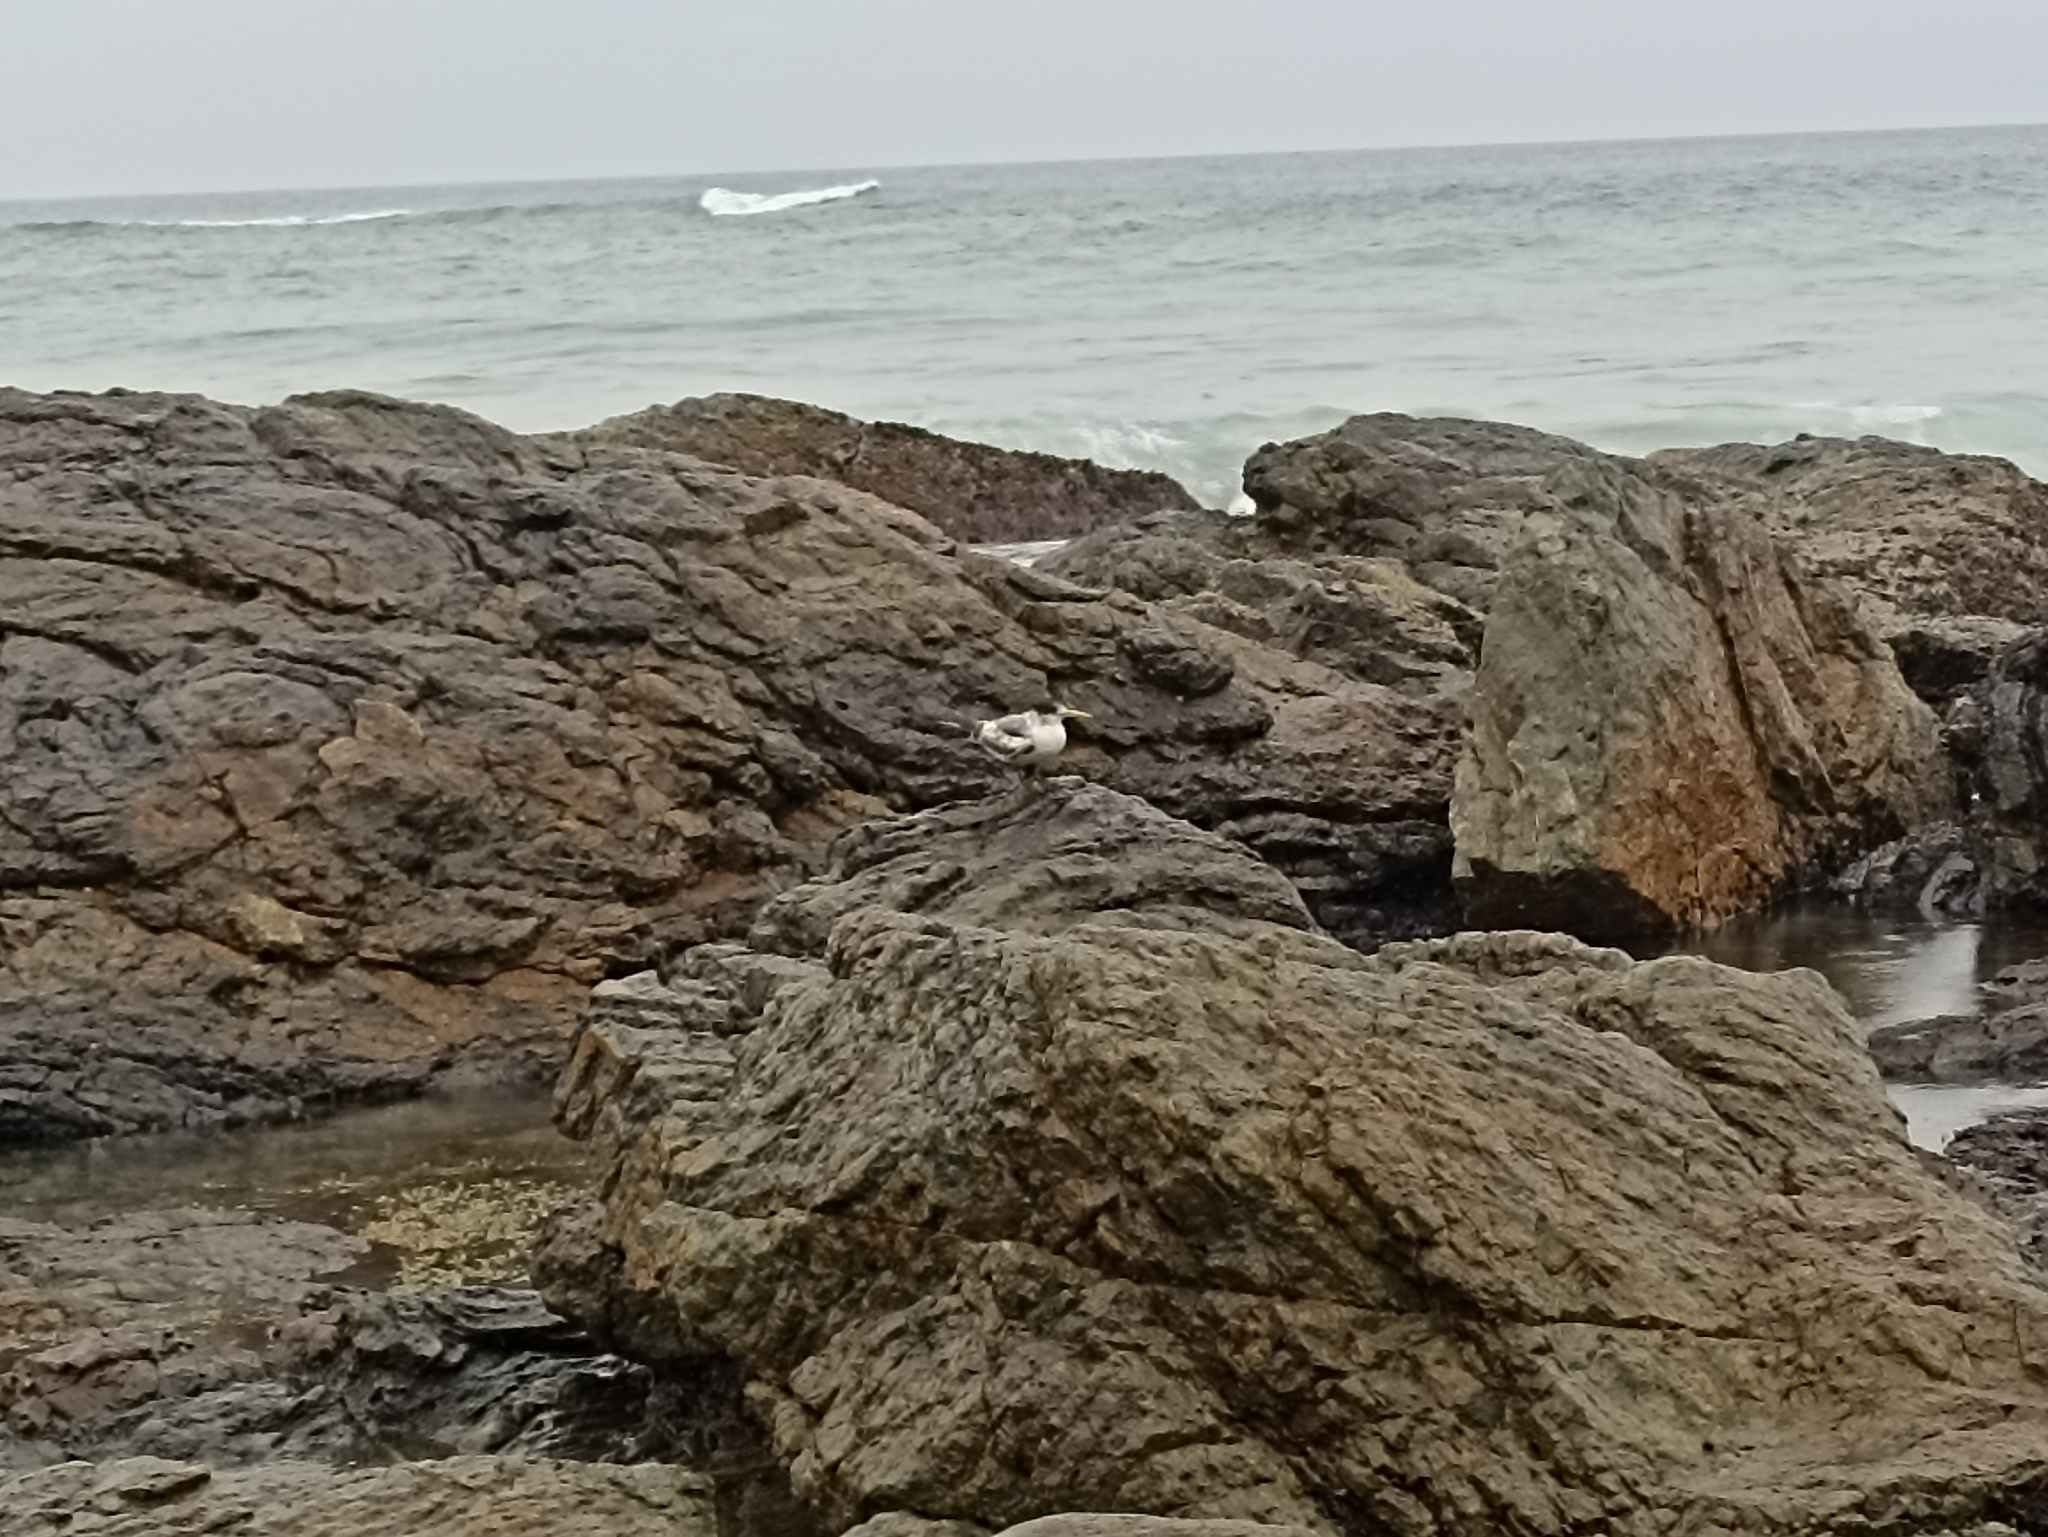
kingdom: Animalia
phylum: Chordata
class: Aves
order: Charadriiformes
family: Laridae
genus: Thalasseus
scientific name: Thalasseus bergii
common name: Greater crested tern
